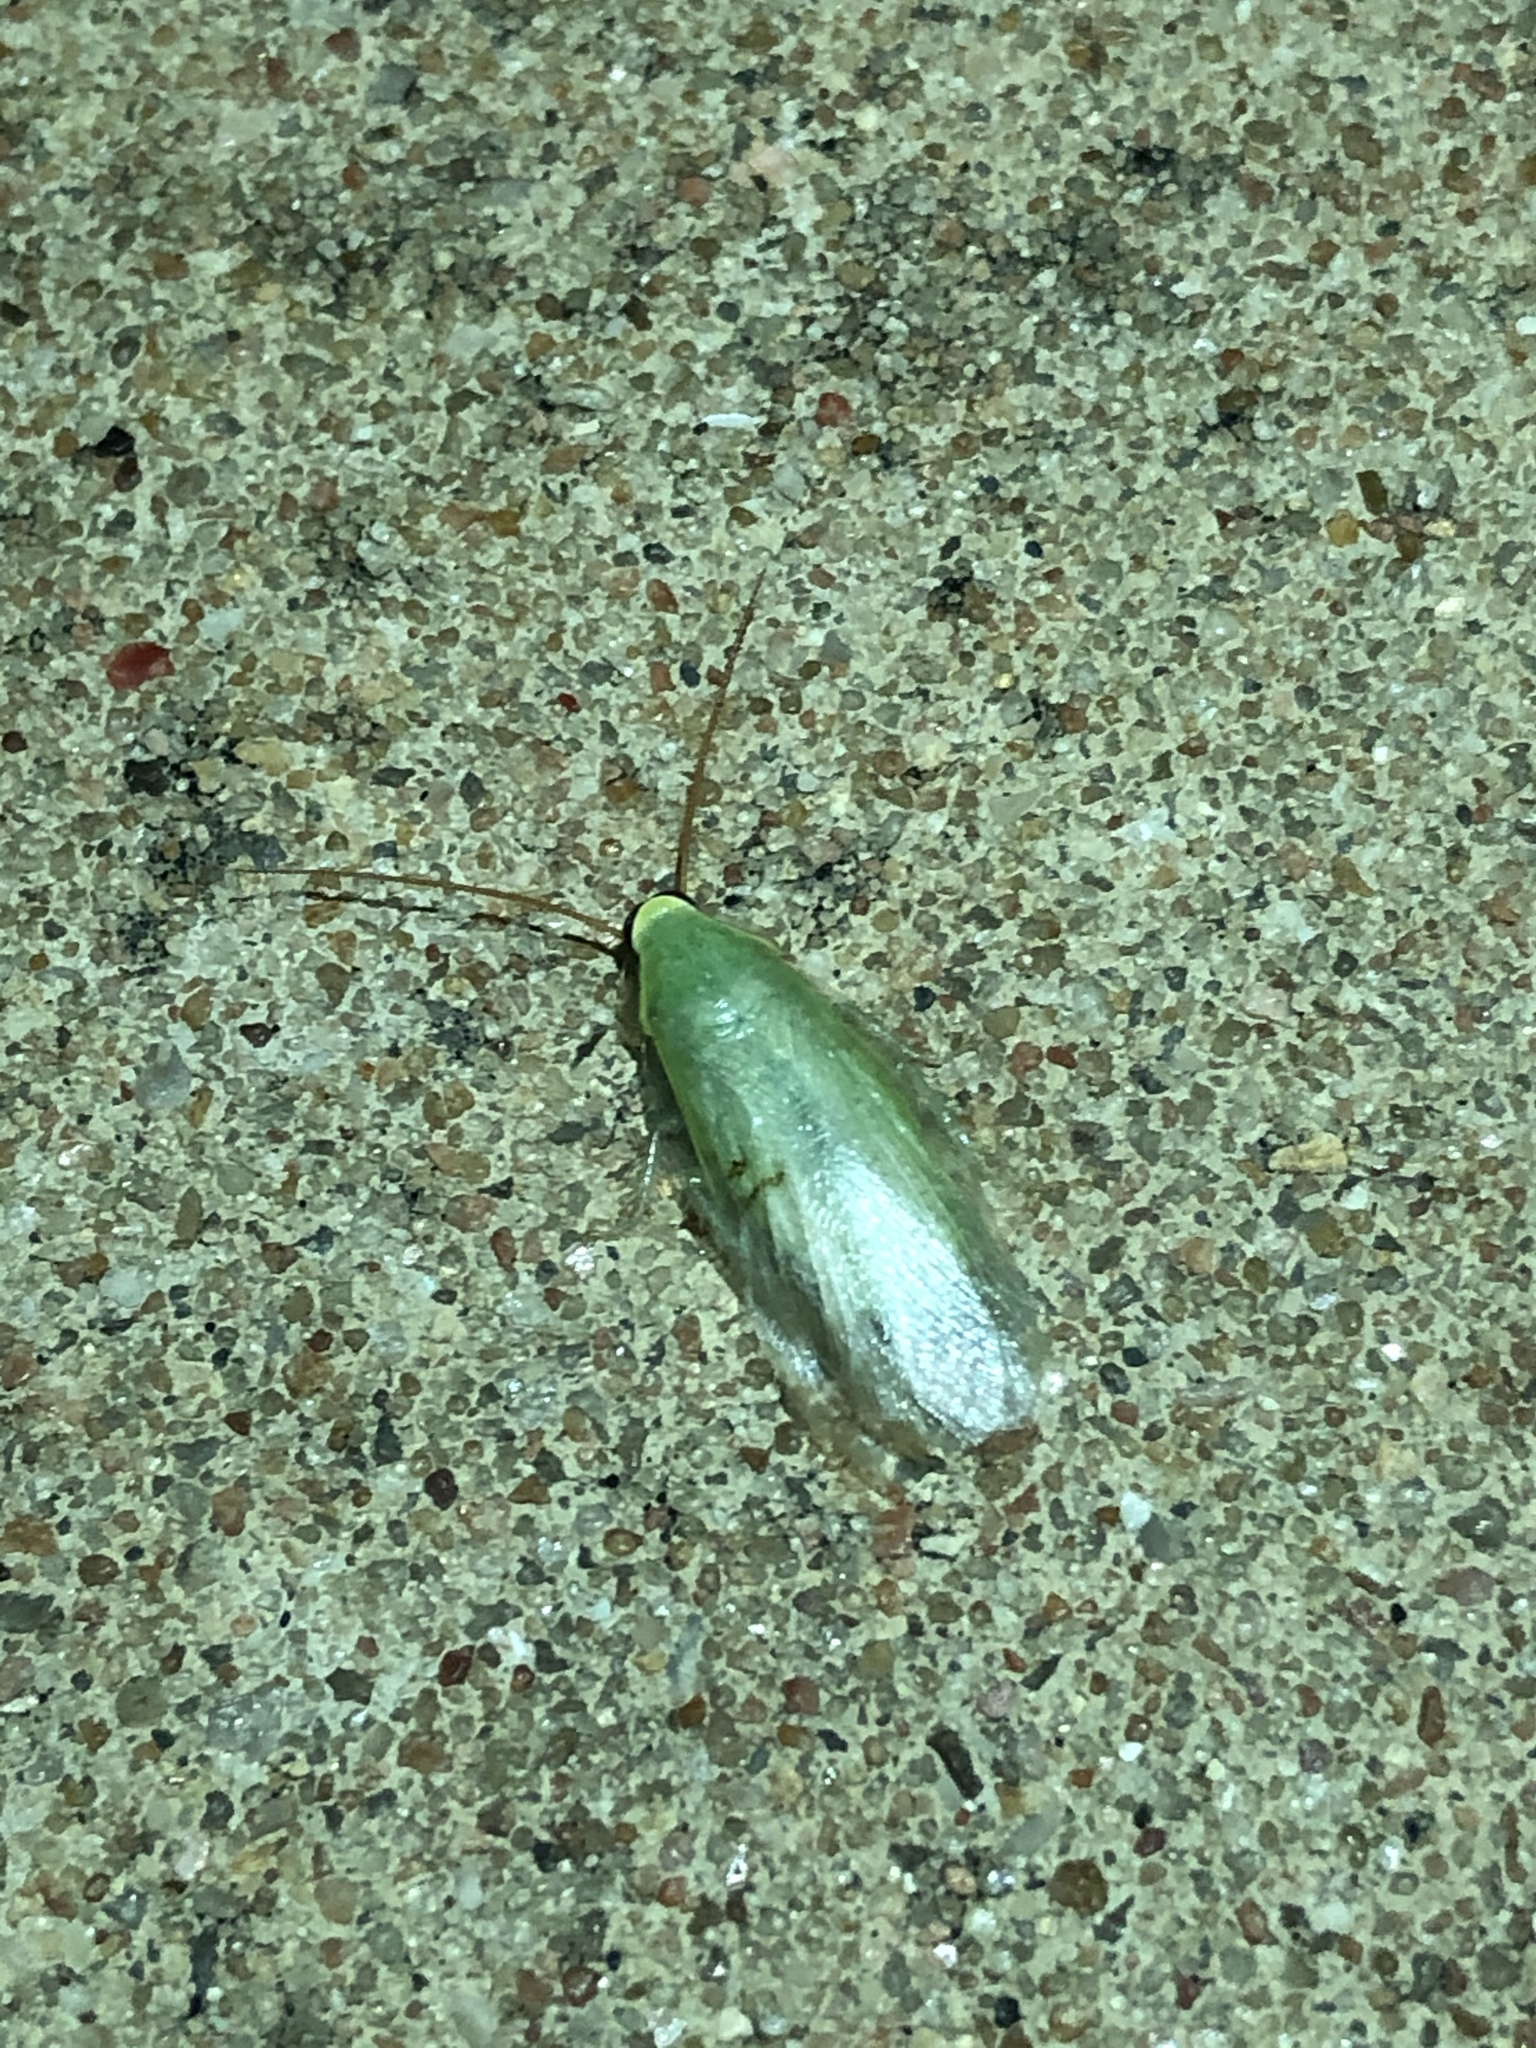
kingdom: Animalia
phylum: Arthropoda
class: Insecta
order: Blattodea
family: Blaberidae
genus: Panchlora
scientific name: Panchlora nivea
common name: Cuban cockroach
